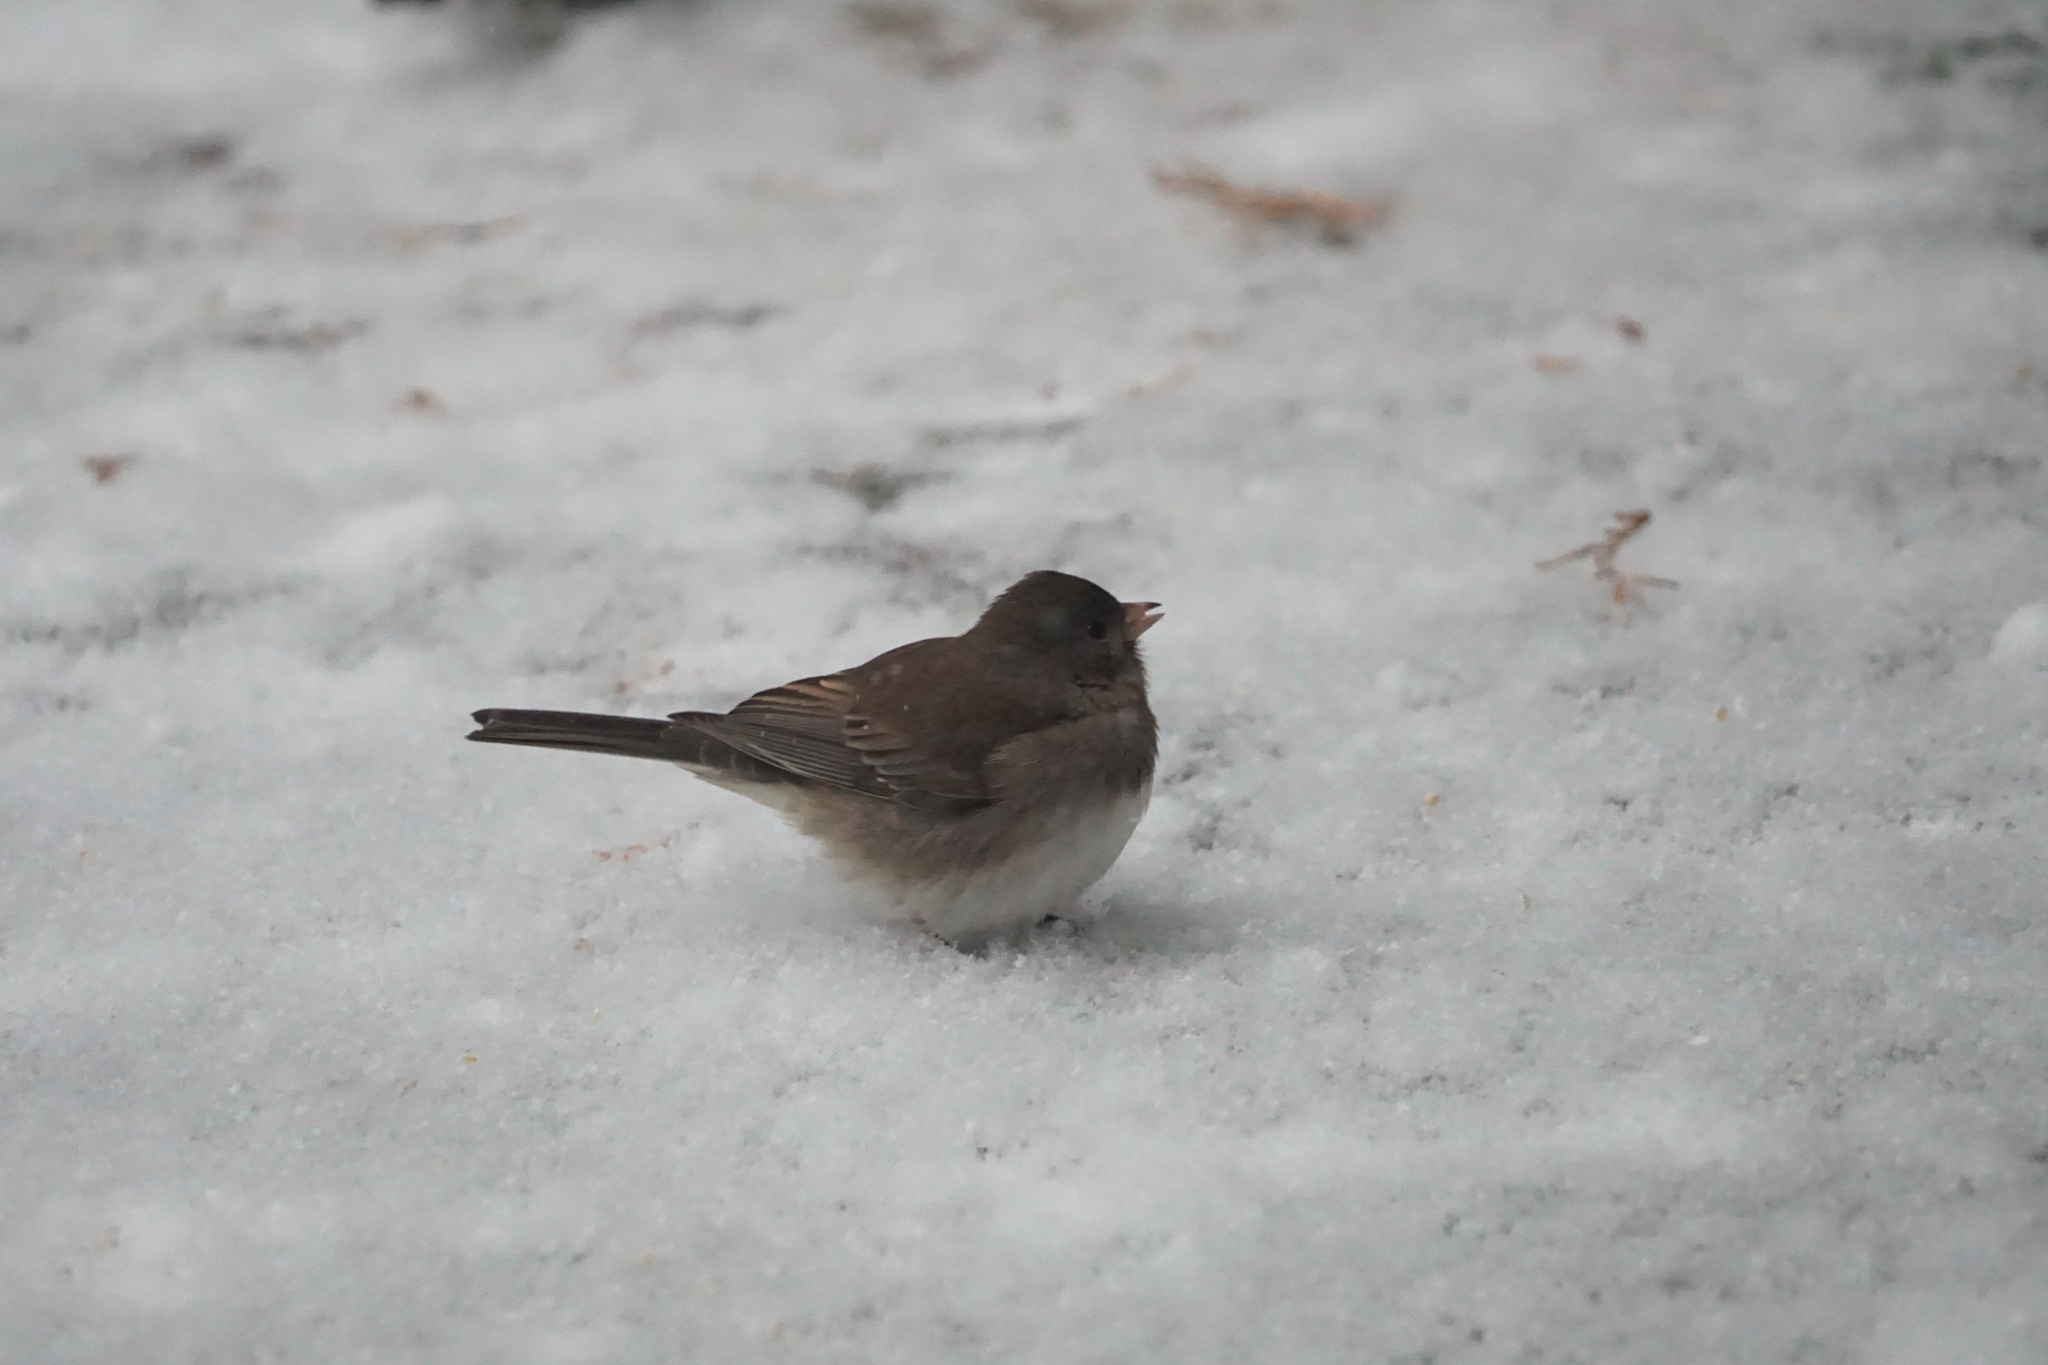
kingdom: Animalia
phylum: Chordata
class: Aves
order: Passeriformes
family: Passerellidae
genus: Junco
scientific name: Junco hyemalis
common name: Dark-eyed junco
